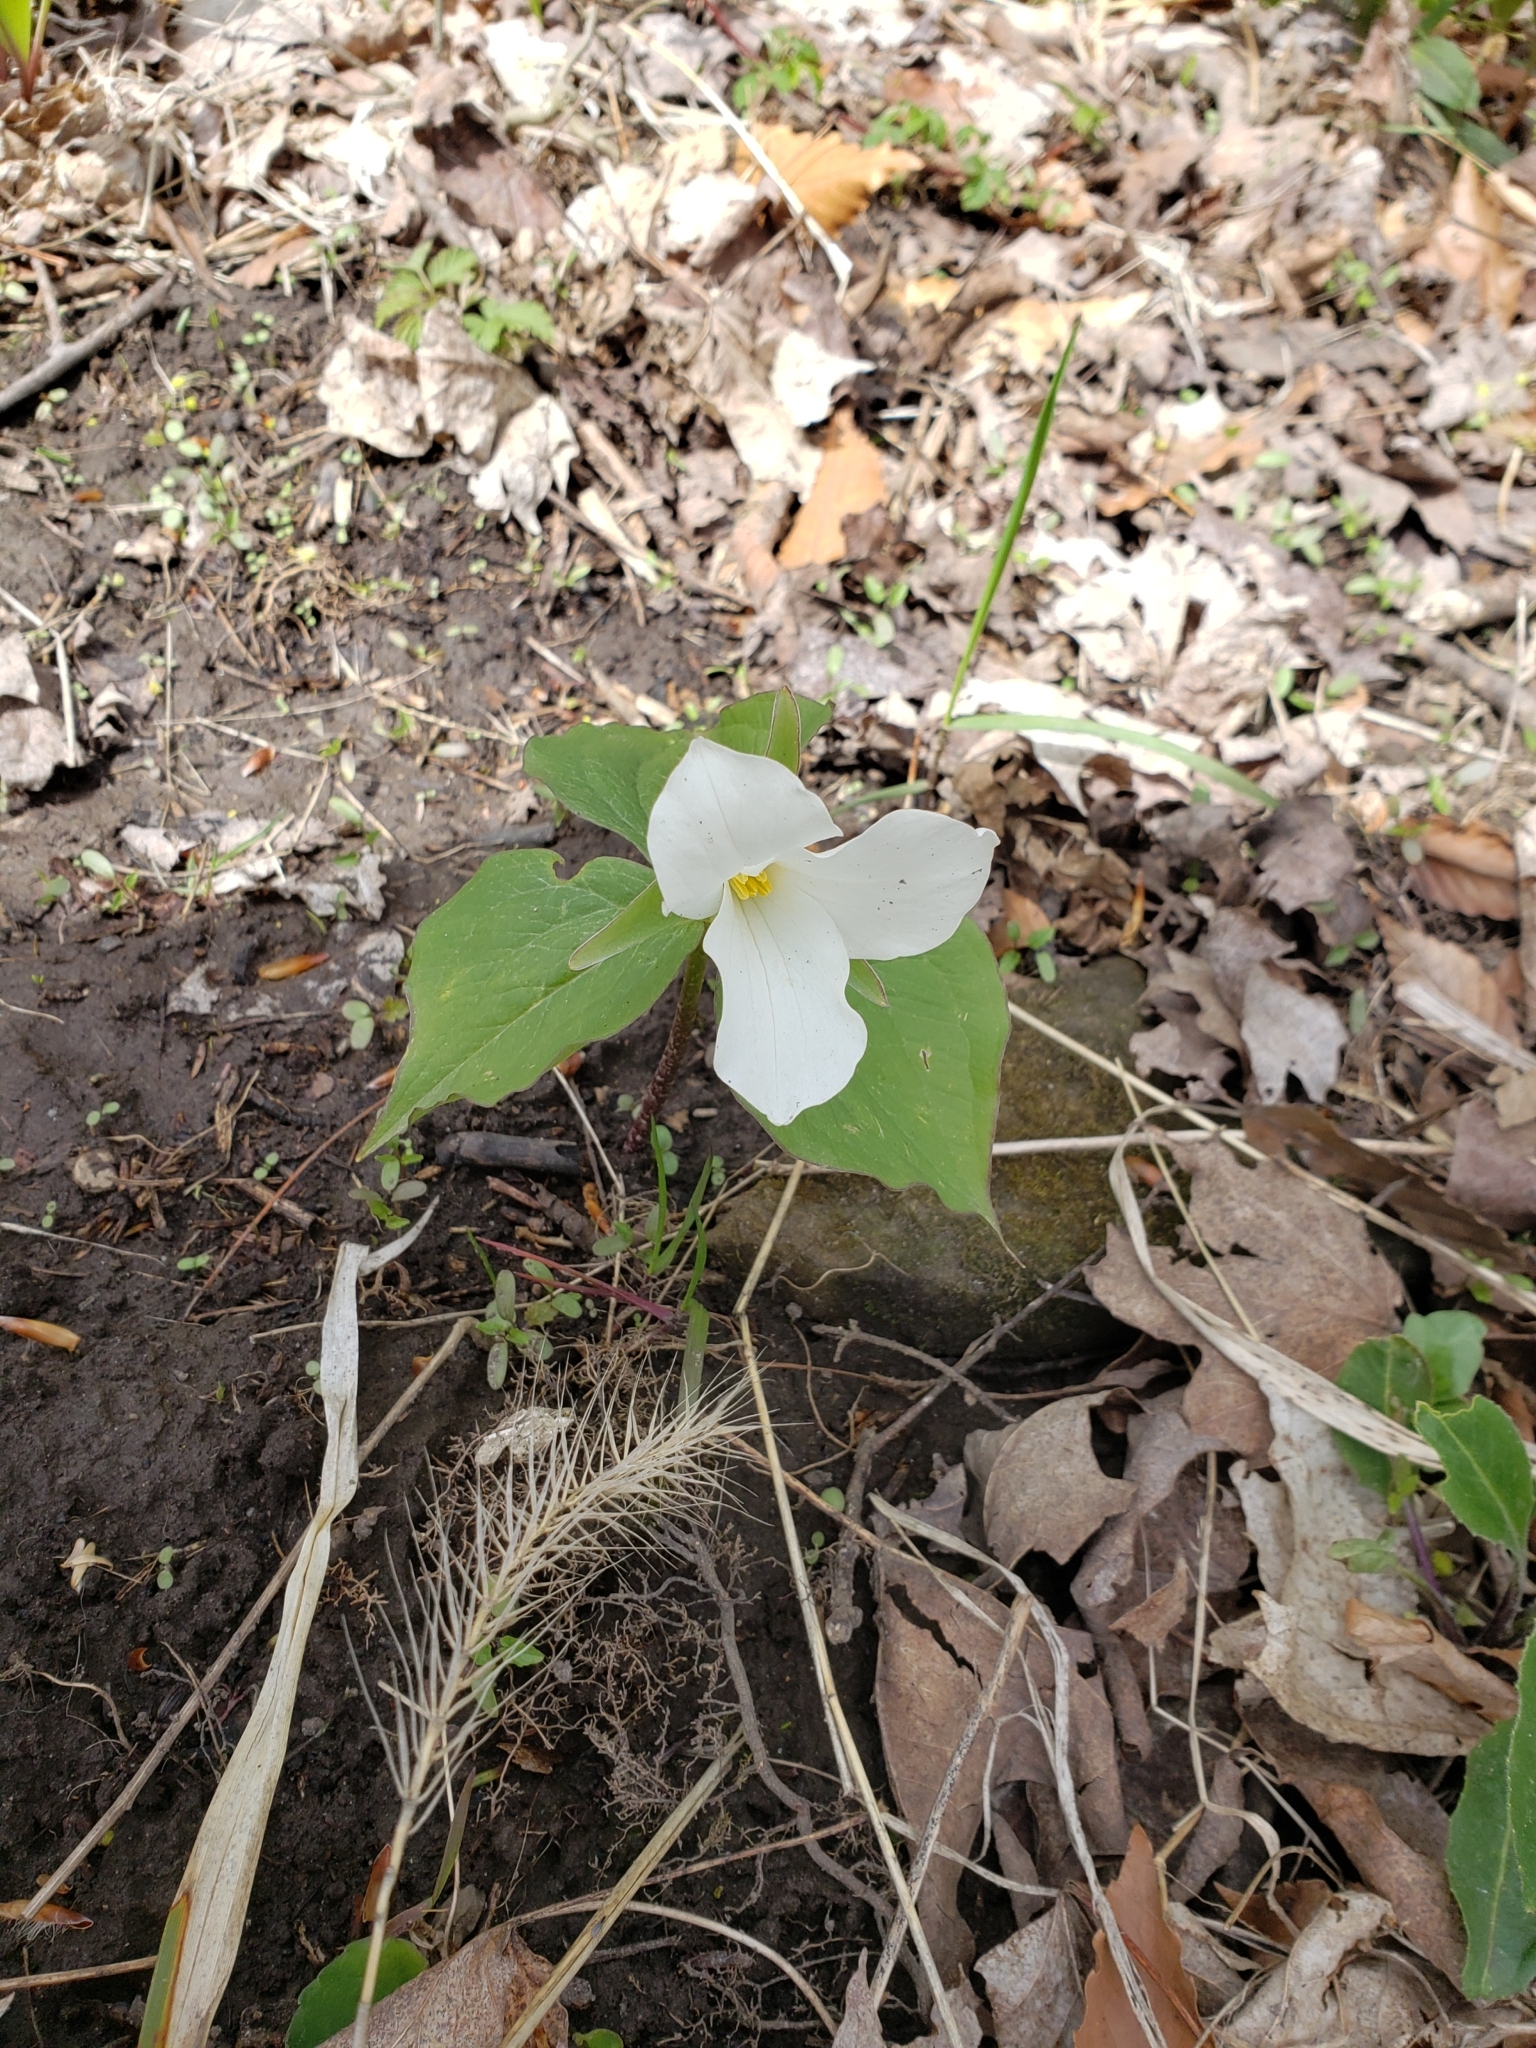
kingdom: Plantae
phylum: Tracheophyta
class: Liliopsida
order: Liliales
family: Melanthiaceae
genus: Trillium
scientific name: Trillium grandiflorum
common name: Great white trillium
